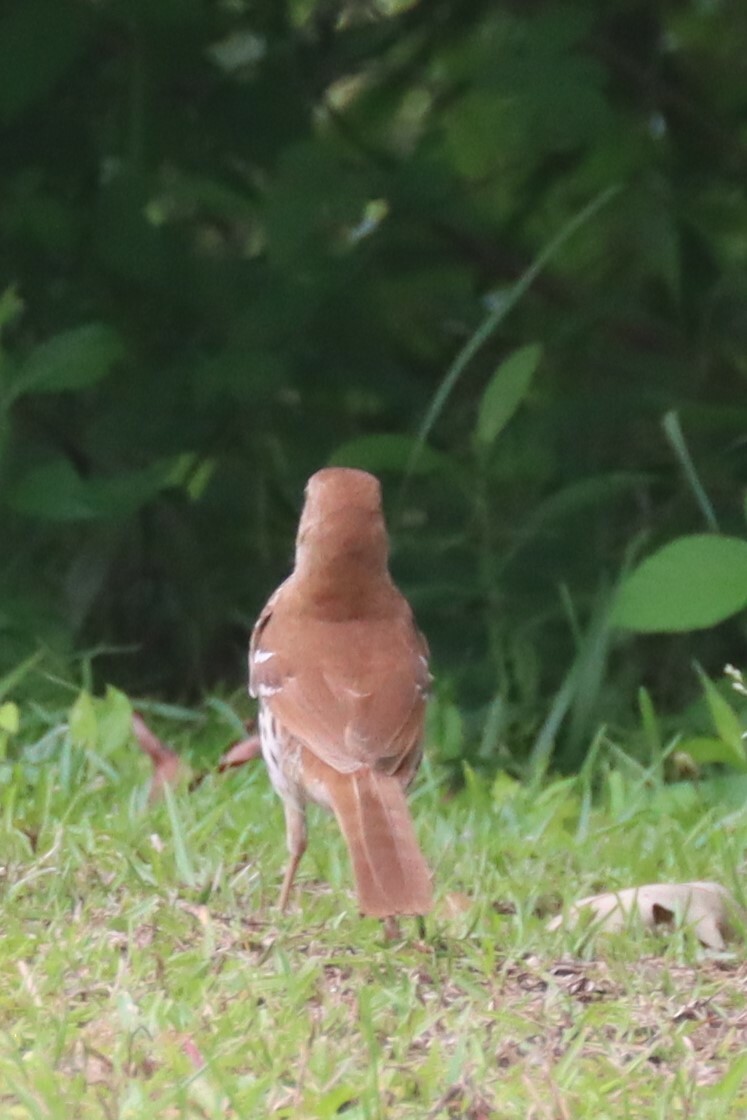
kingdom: Animalia
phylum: Chordata
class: Aves
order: Passeriformes
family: Mimidae
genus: Toxostoma
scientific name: Toxostoma rufum
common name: Brown thrasher
